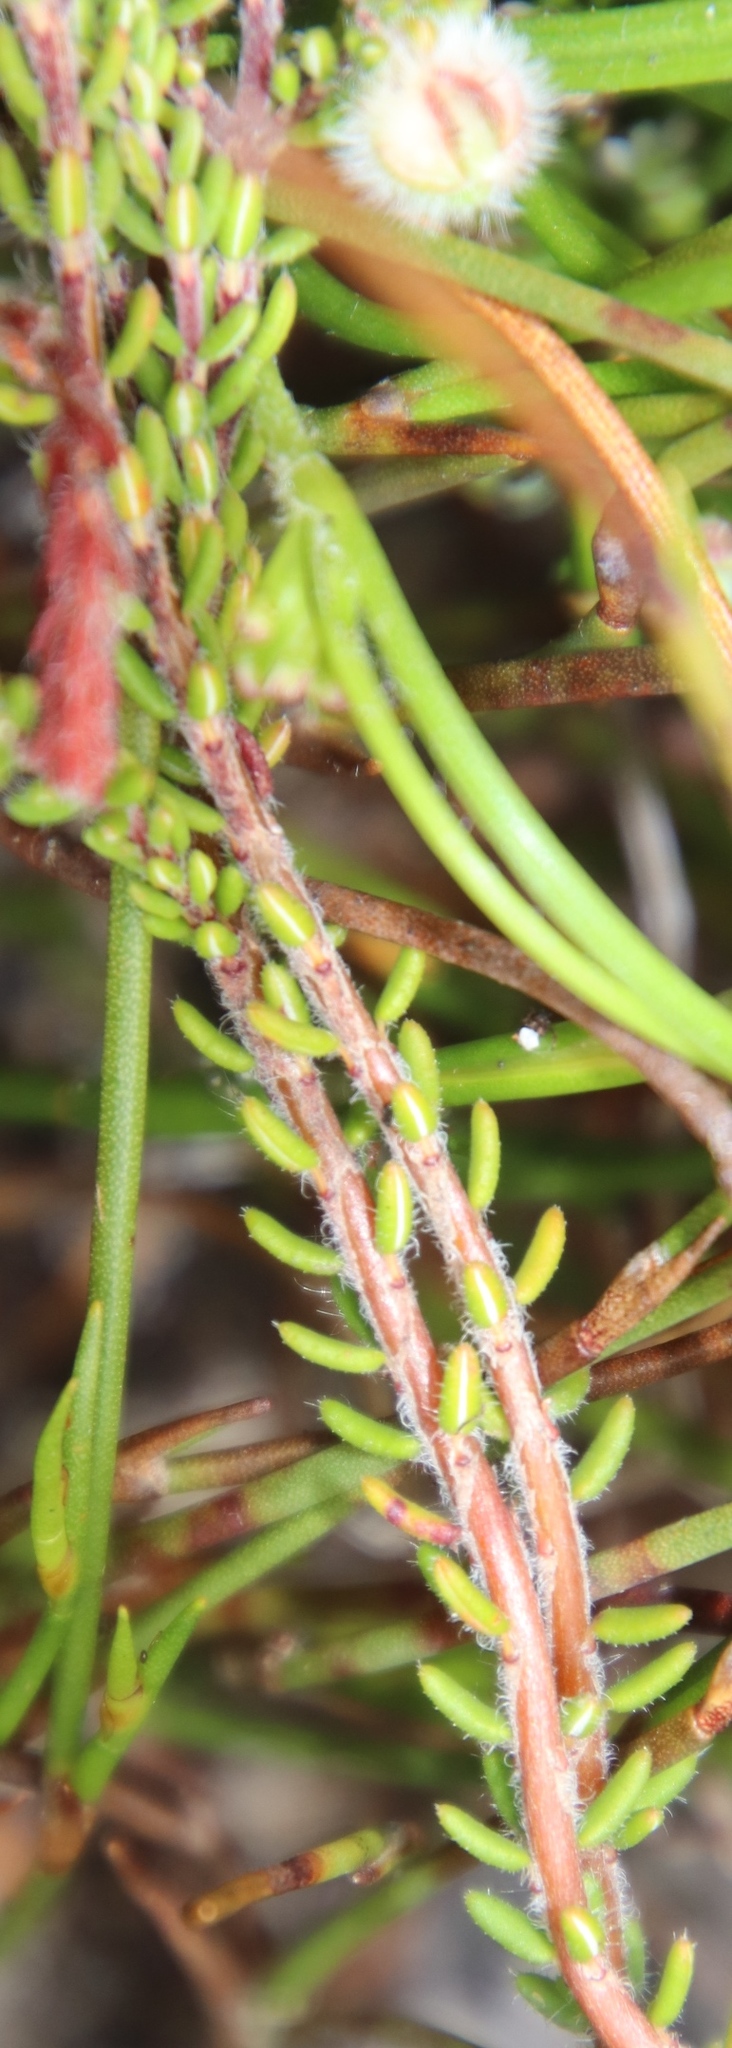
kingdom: Plantae
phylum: Tracheophyta
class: Magnoliopsida
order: Ericales
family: Ericaceae
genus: Erica
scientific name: Erica bruniades
